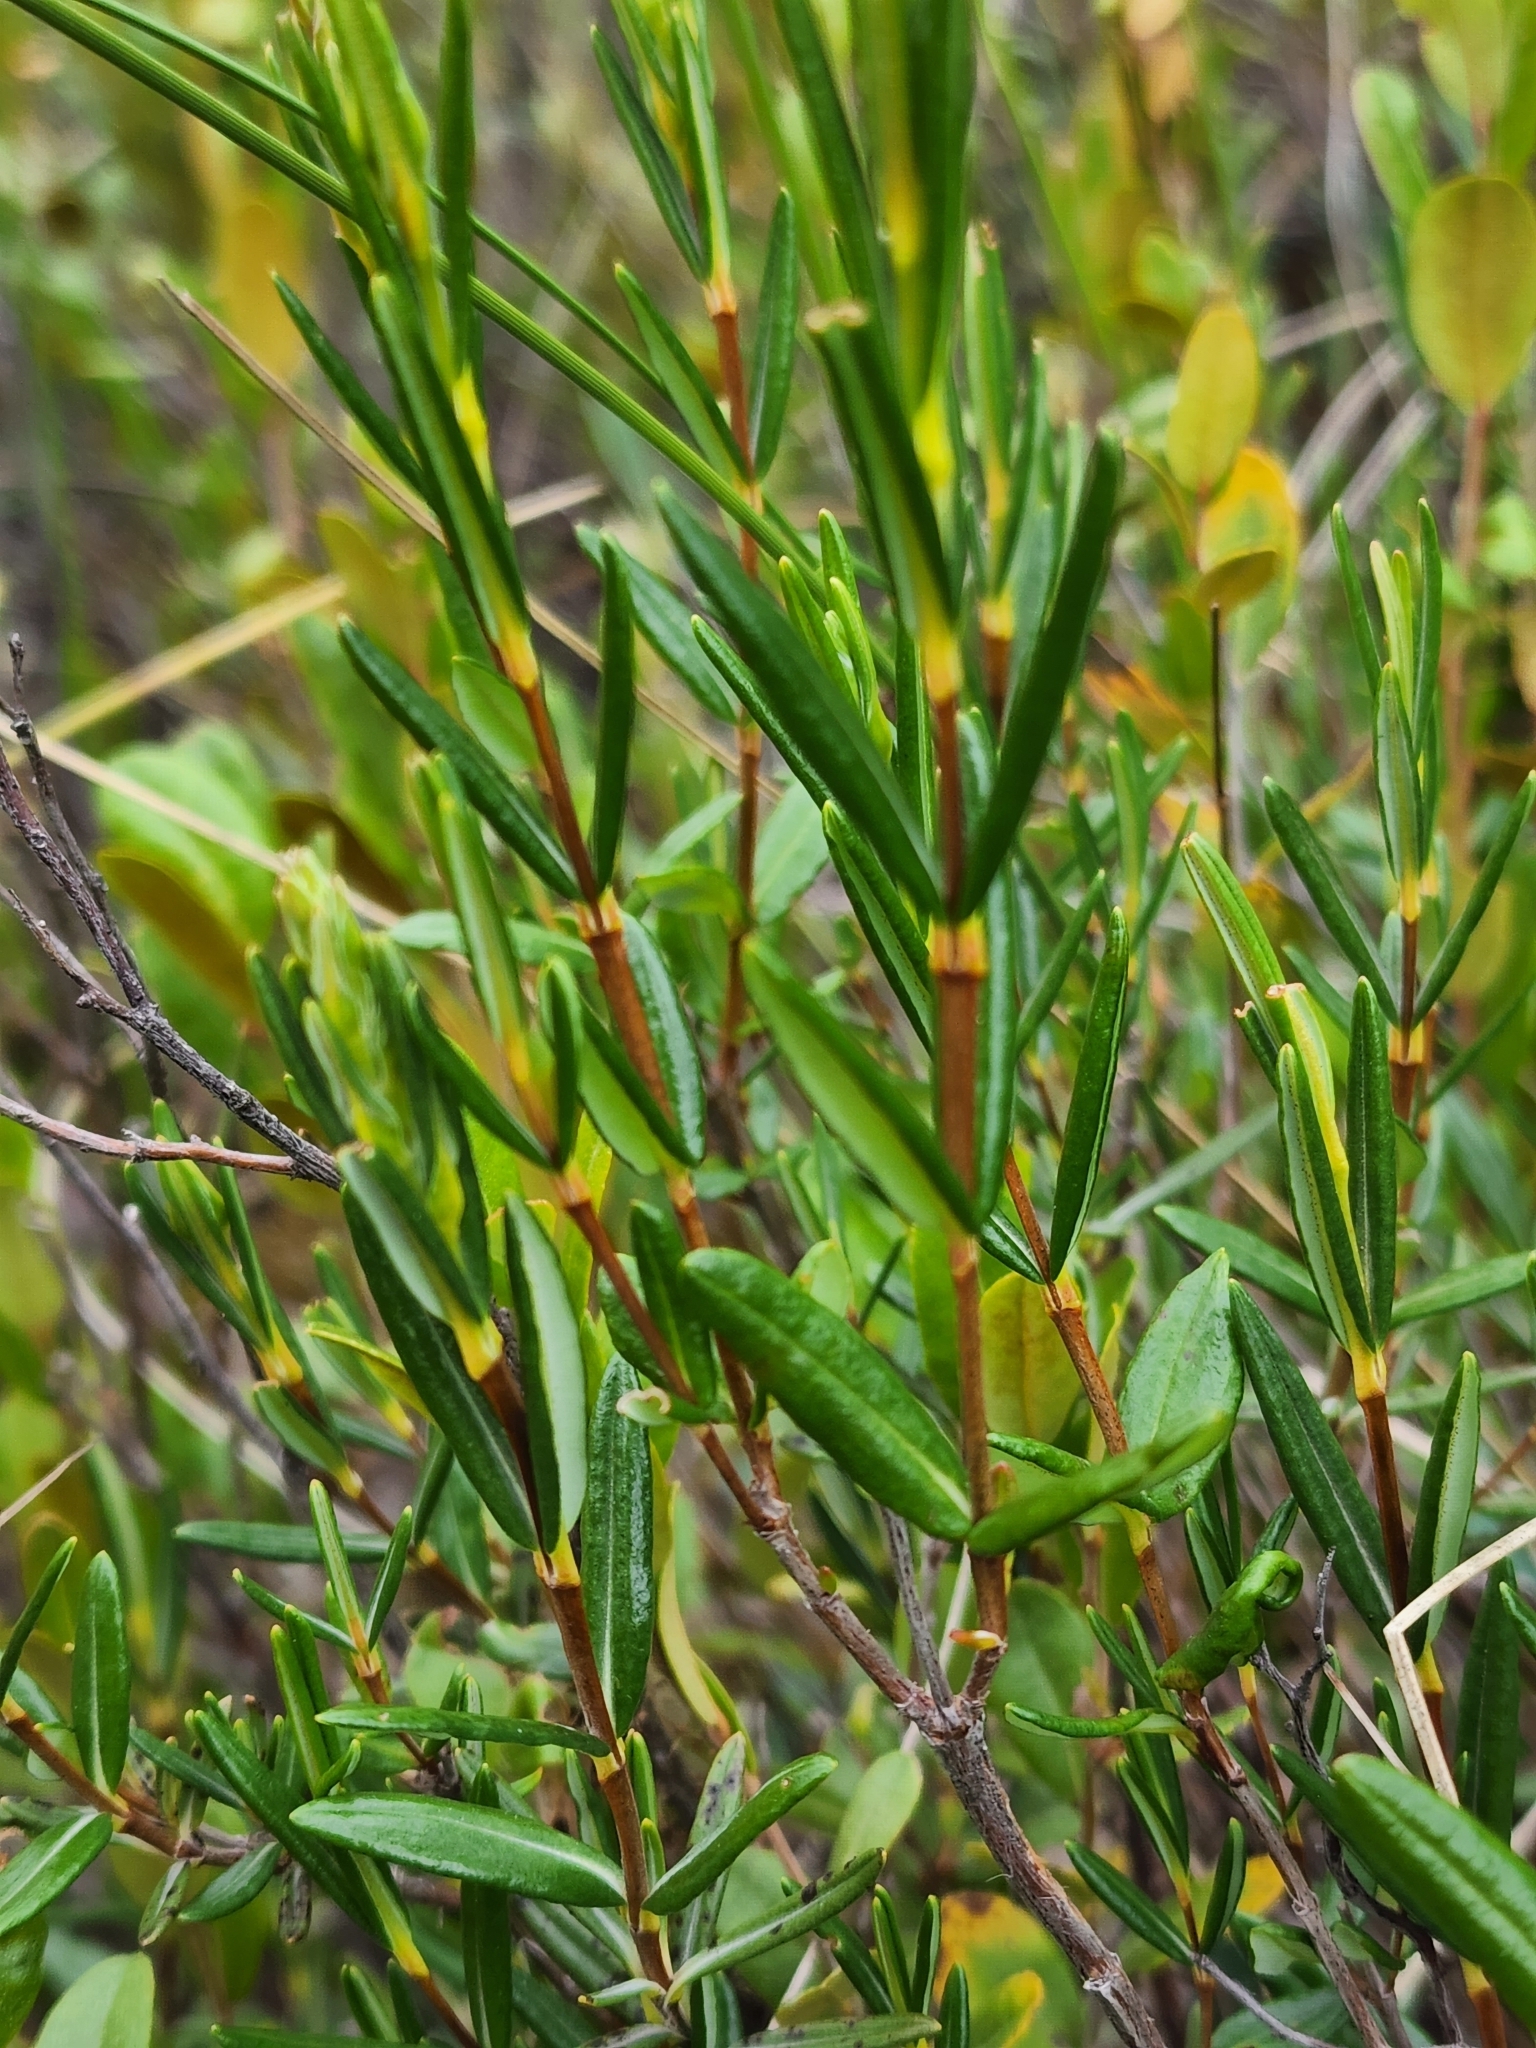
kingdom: Plantae
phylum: Tracheophyta
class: Magnoliopsida
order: Ericales
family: Ericaceae
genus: Kalmia
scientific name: Kalmia polifolia
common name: Bog-laurel
